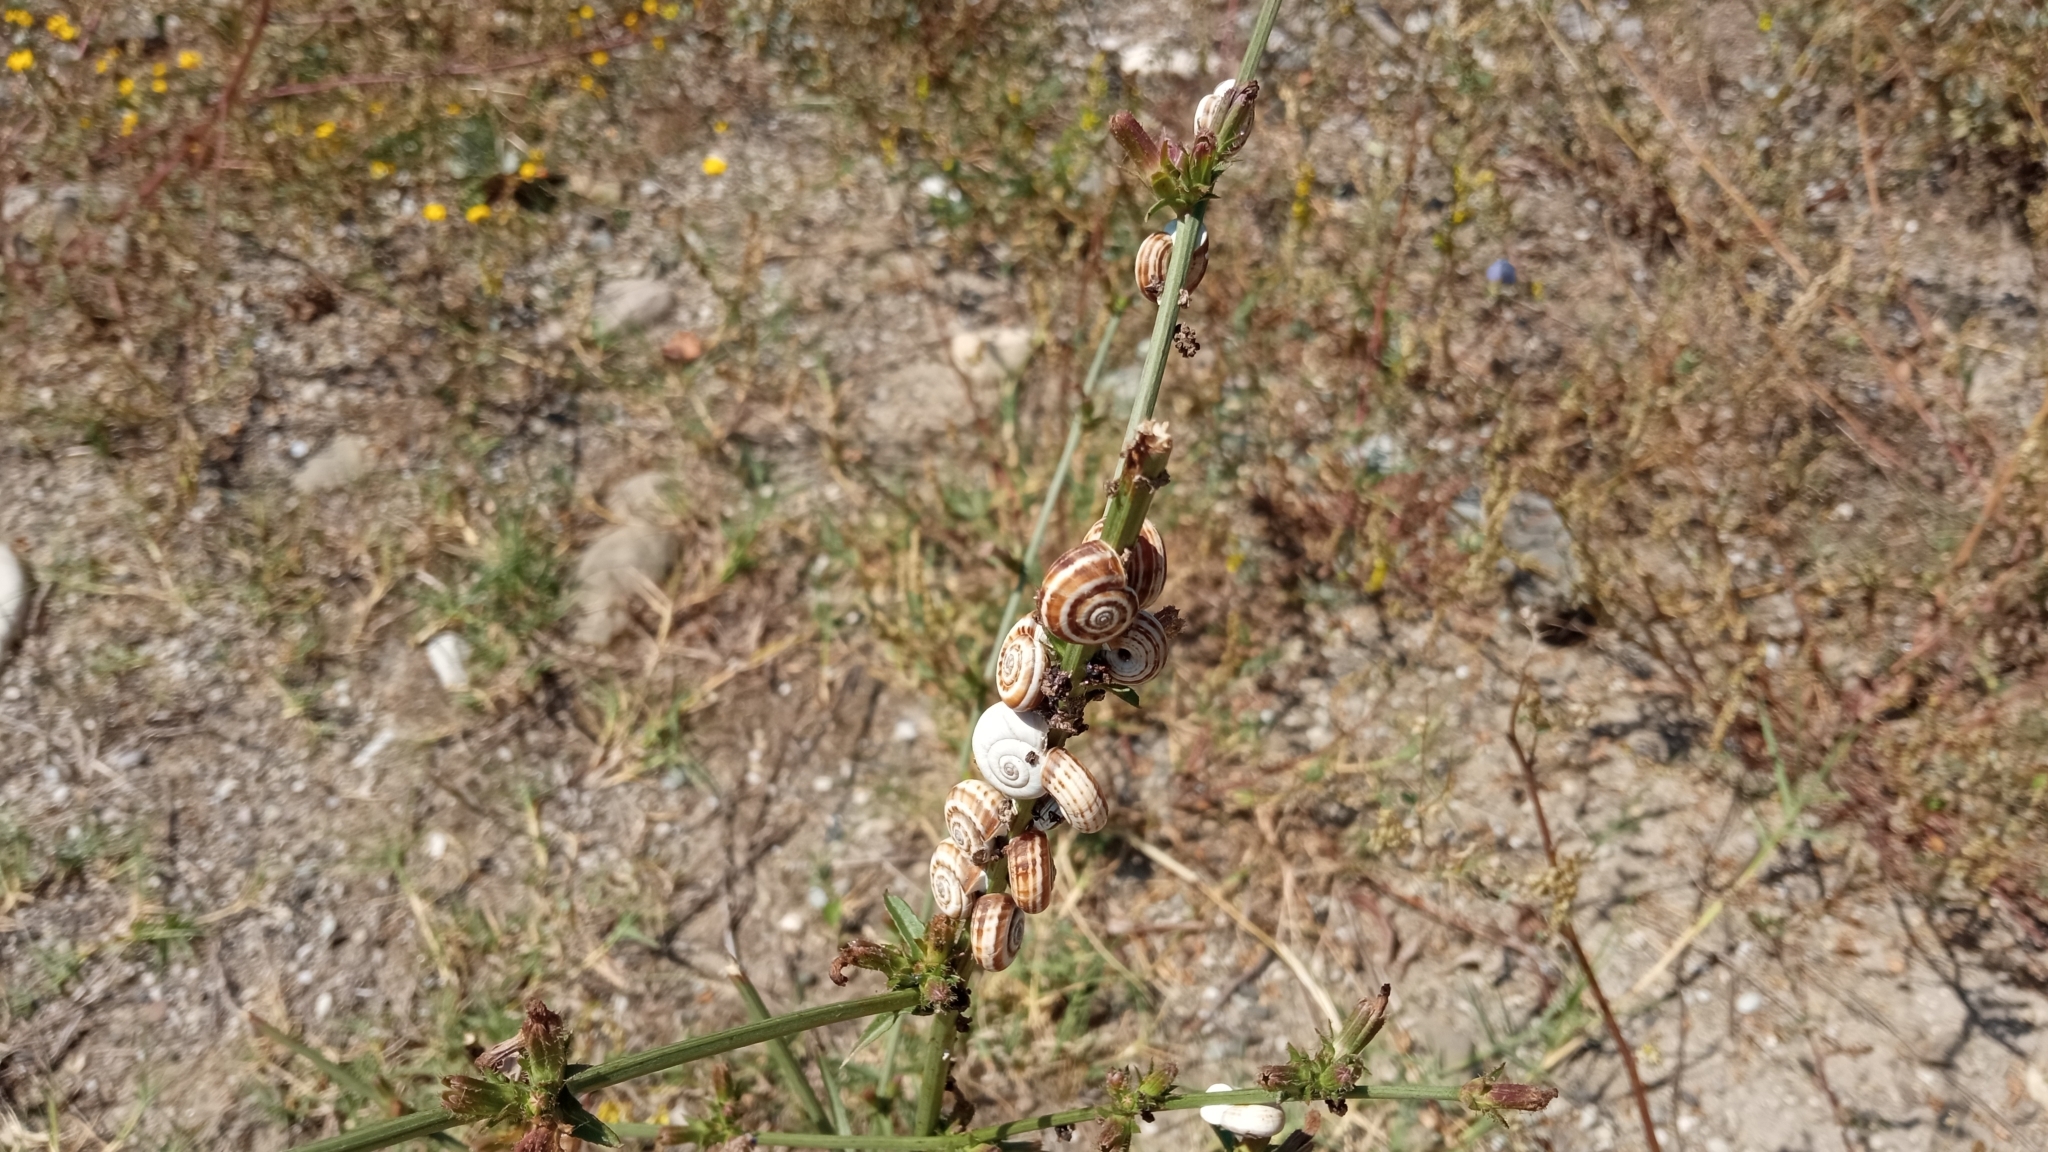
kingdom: Animalia
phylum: Mollusca
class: Gastropoda
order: Stylommatophora
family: Geomitridae
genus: Xeropicta
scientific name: Xeropicta derbentina
